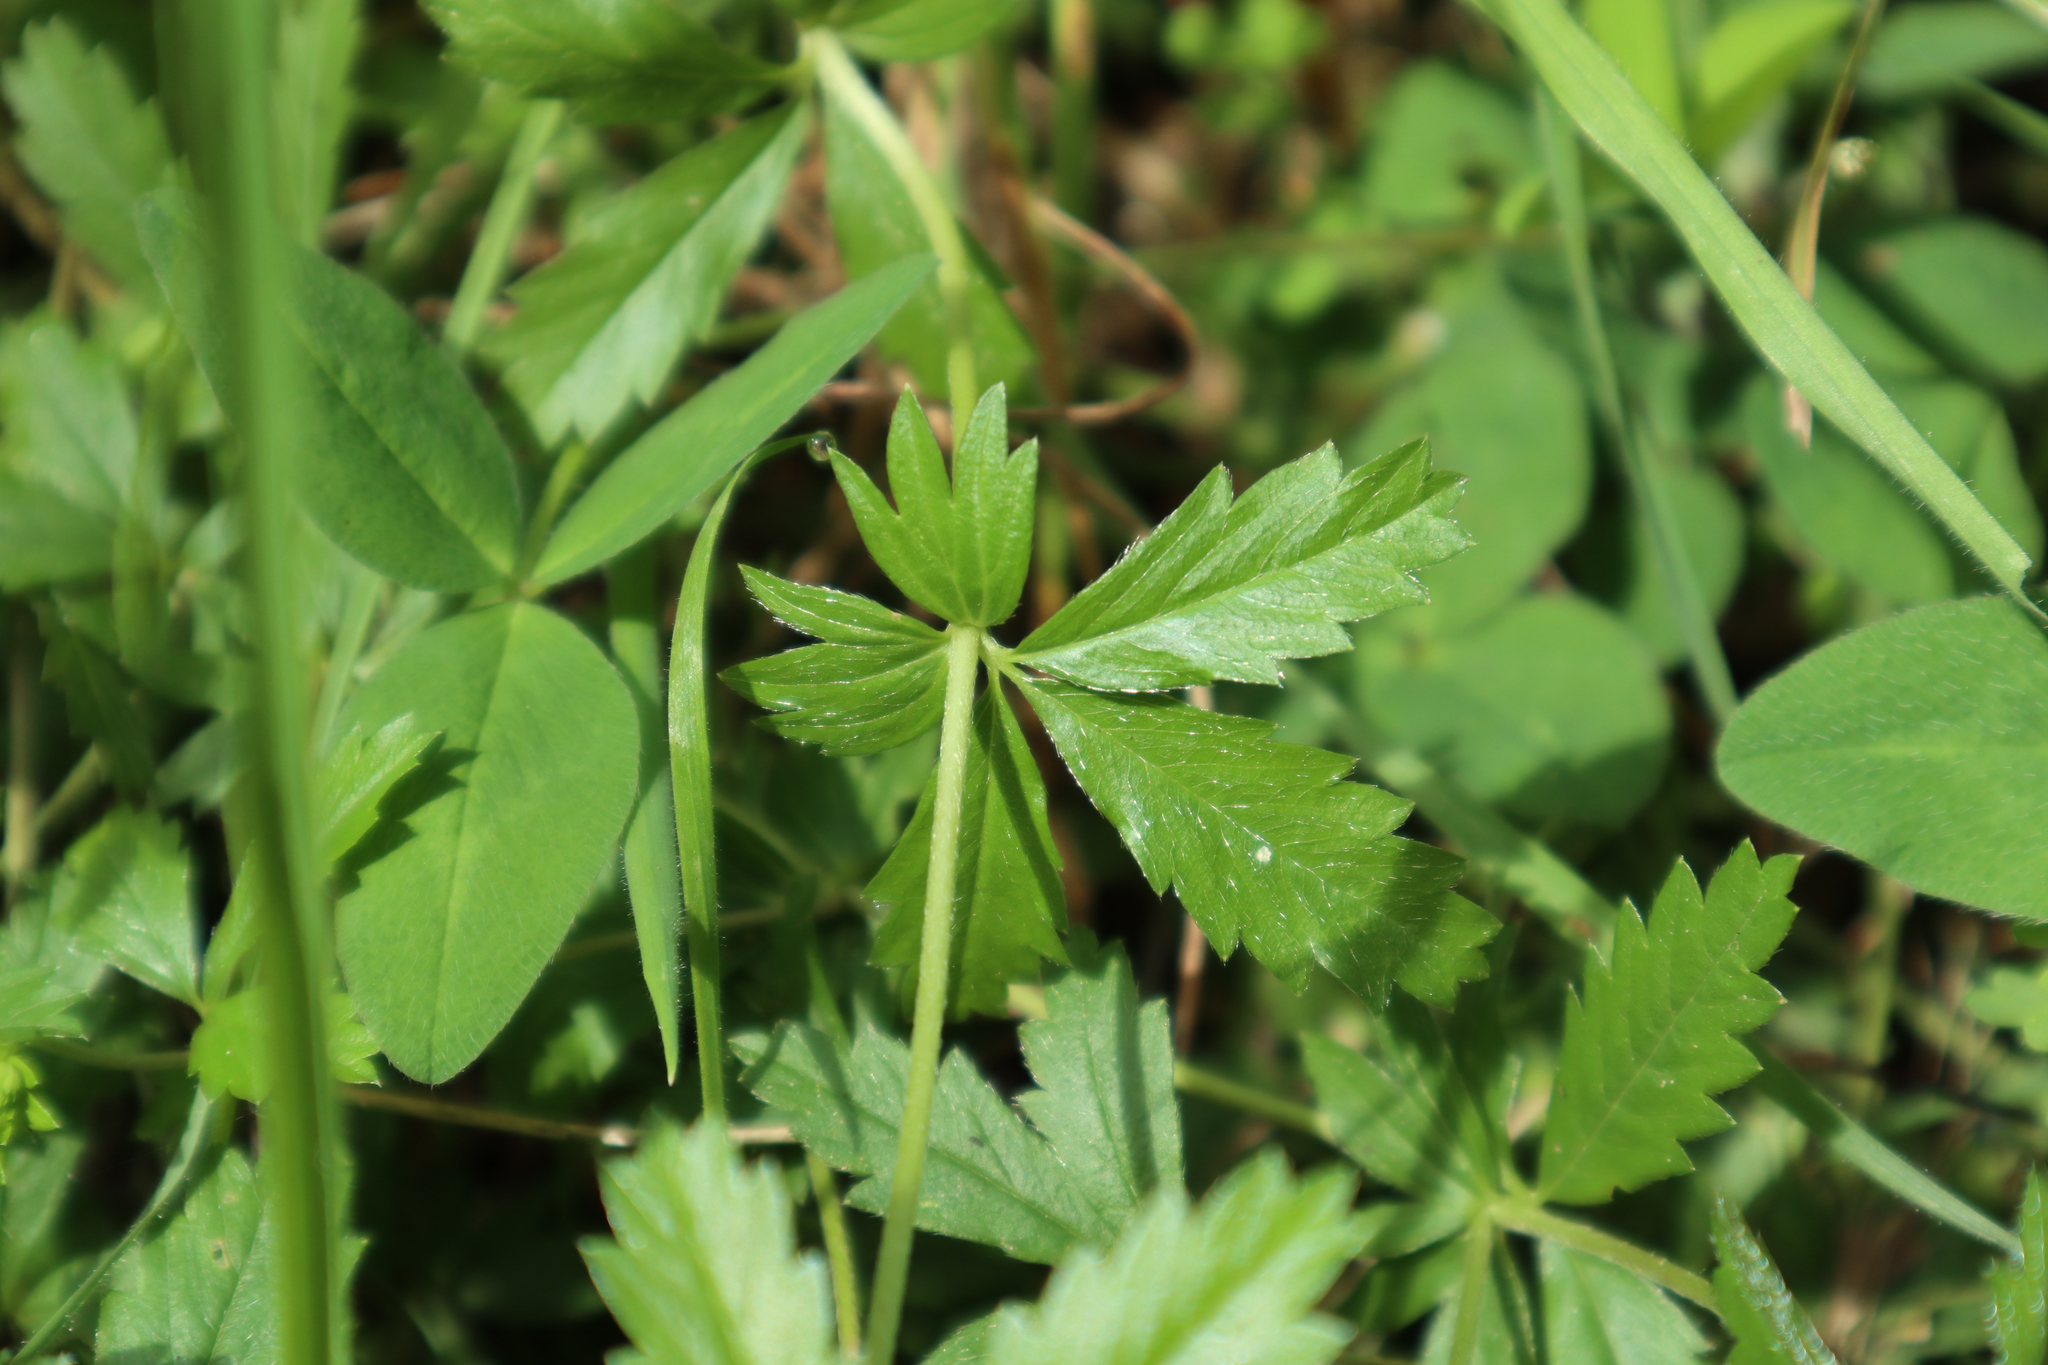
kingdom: Plantae
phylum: Tracheophyta
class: Magnoliopsida
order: Rosales
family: Rosaceae
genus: Potentilla
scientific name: Potentilla erecta
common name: Tormentil
